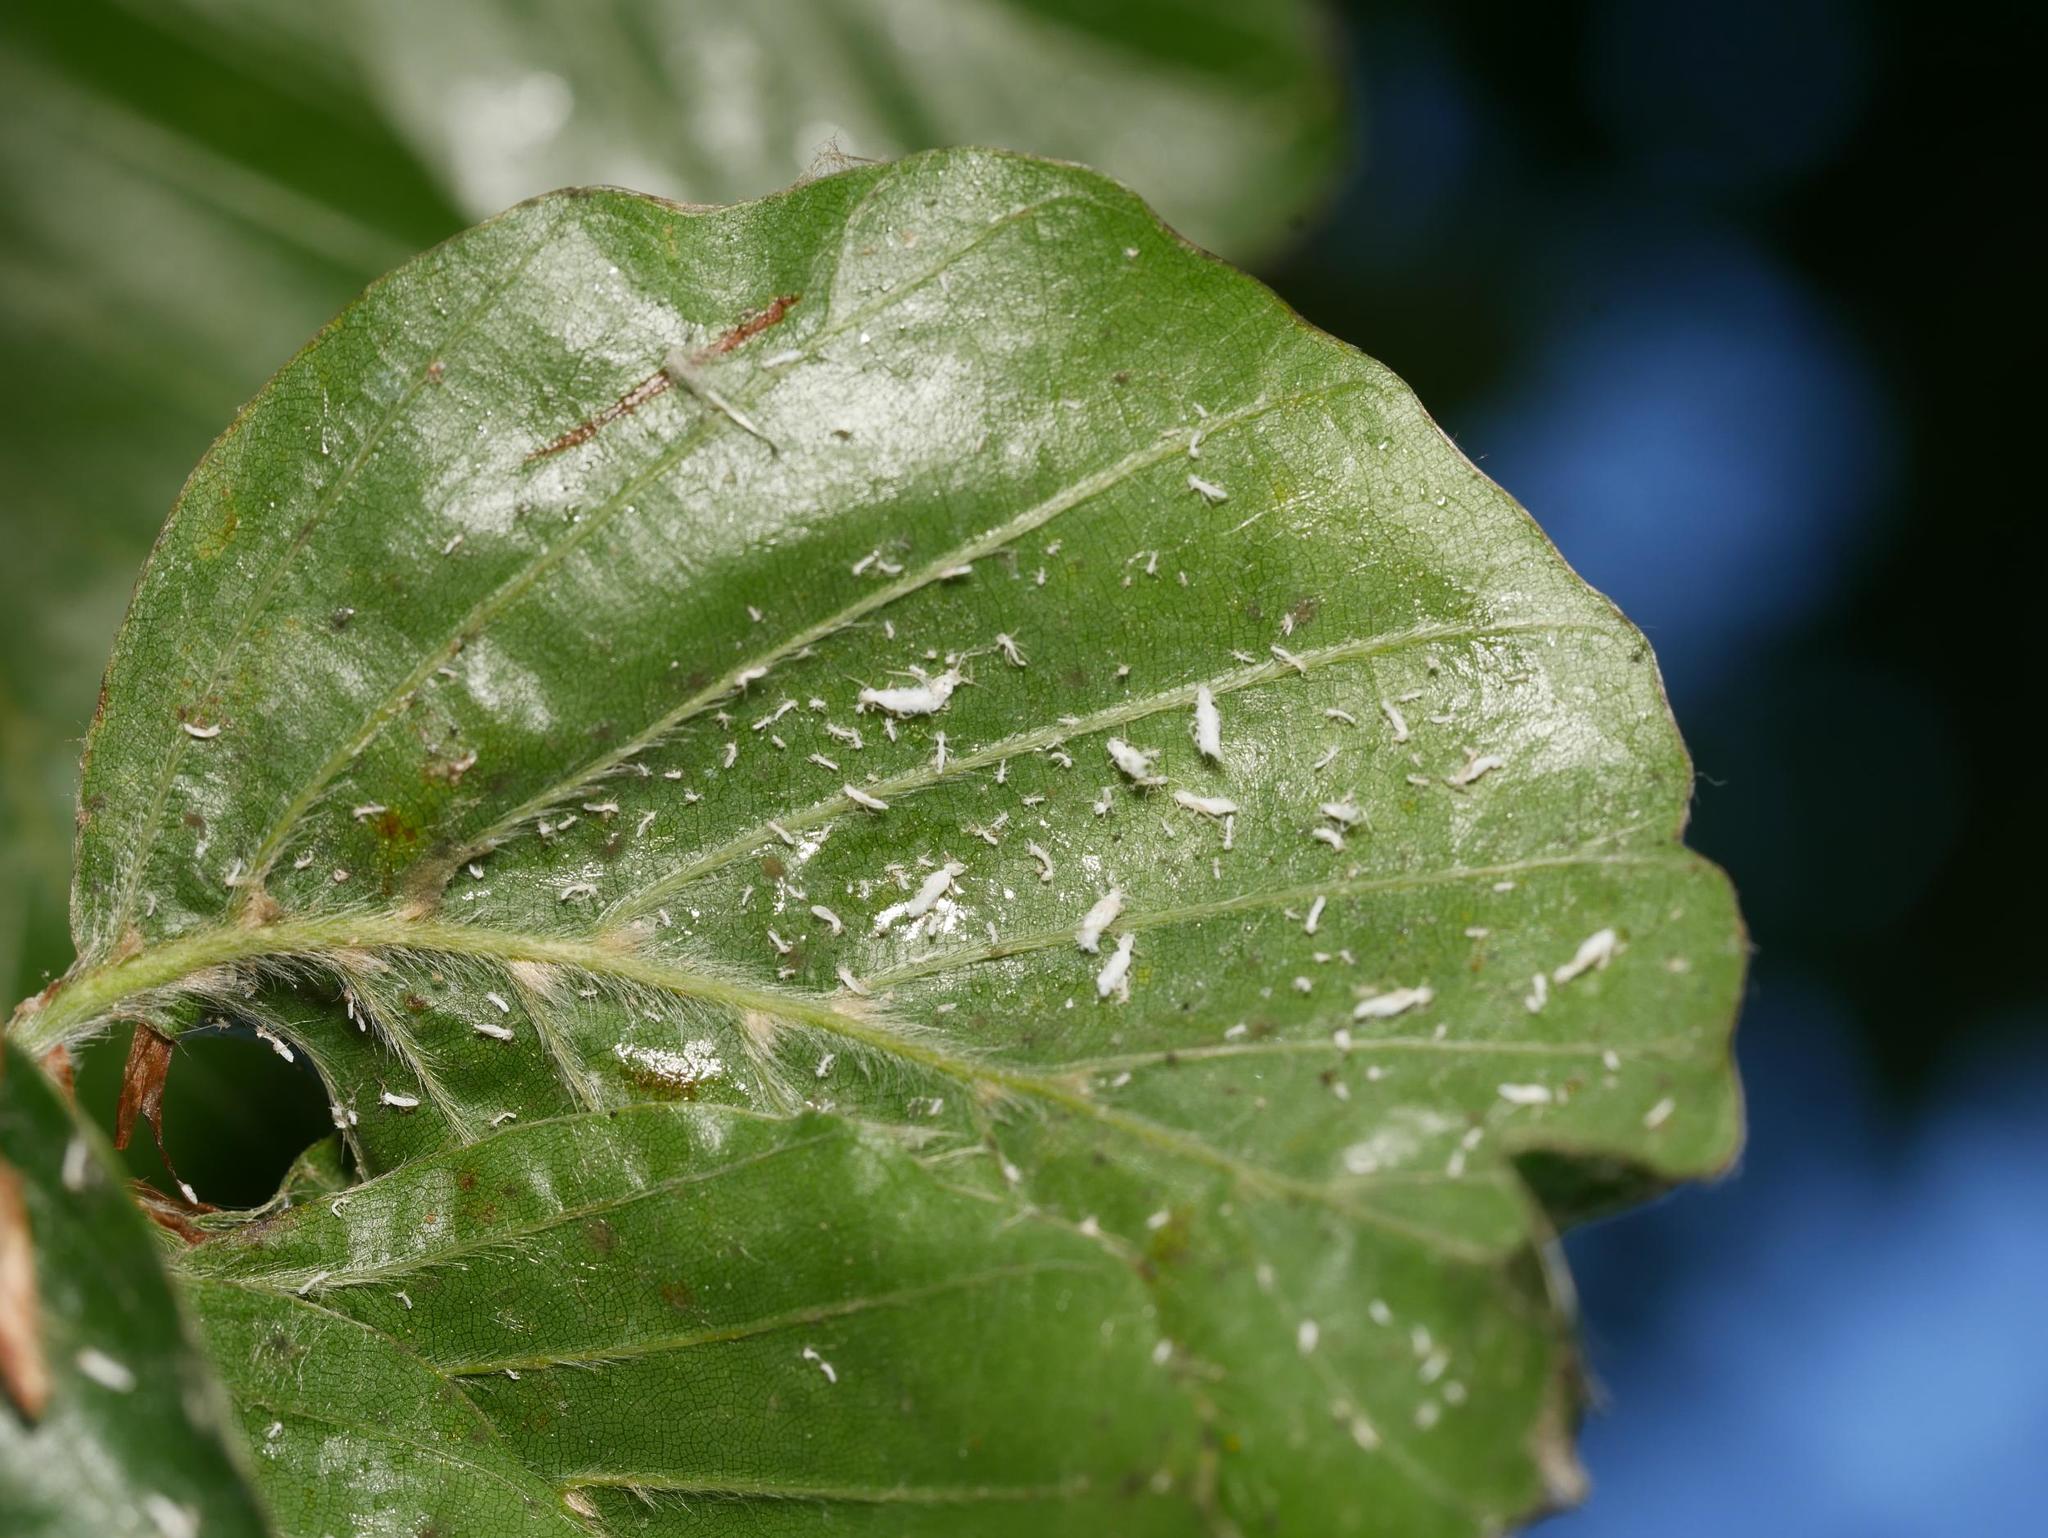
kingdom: Animalia
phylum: Arthropoda
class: Insecta
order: Hemiptera
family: Aphididae
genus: Phyllaphis
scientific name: Phyllaphis fagi
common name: Beech aphid
